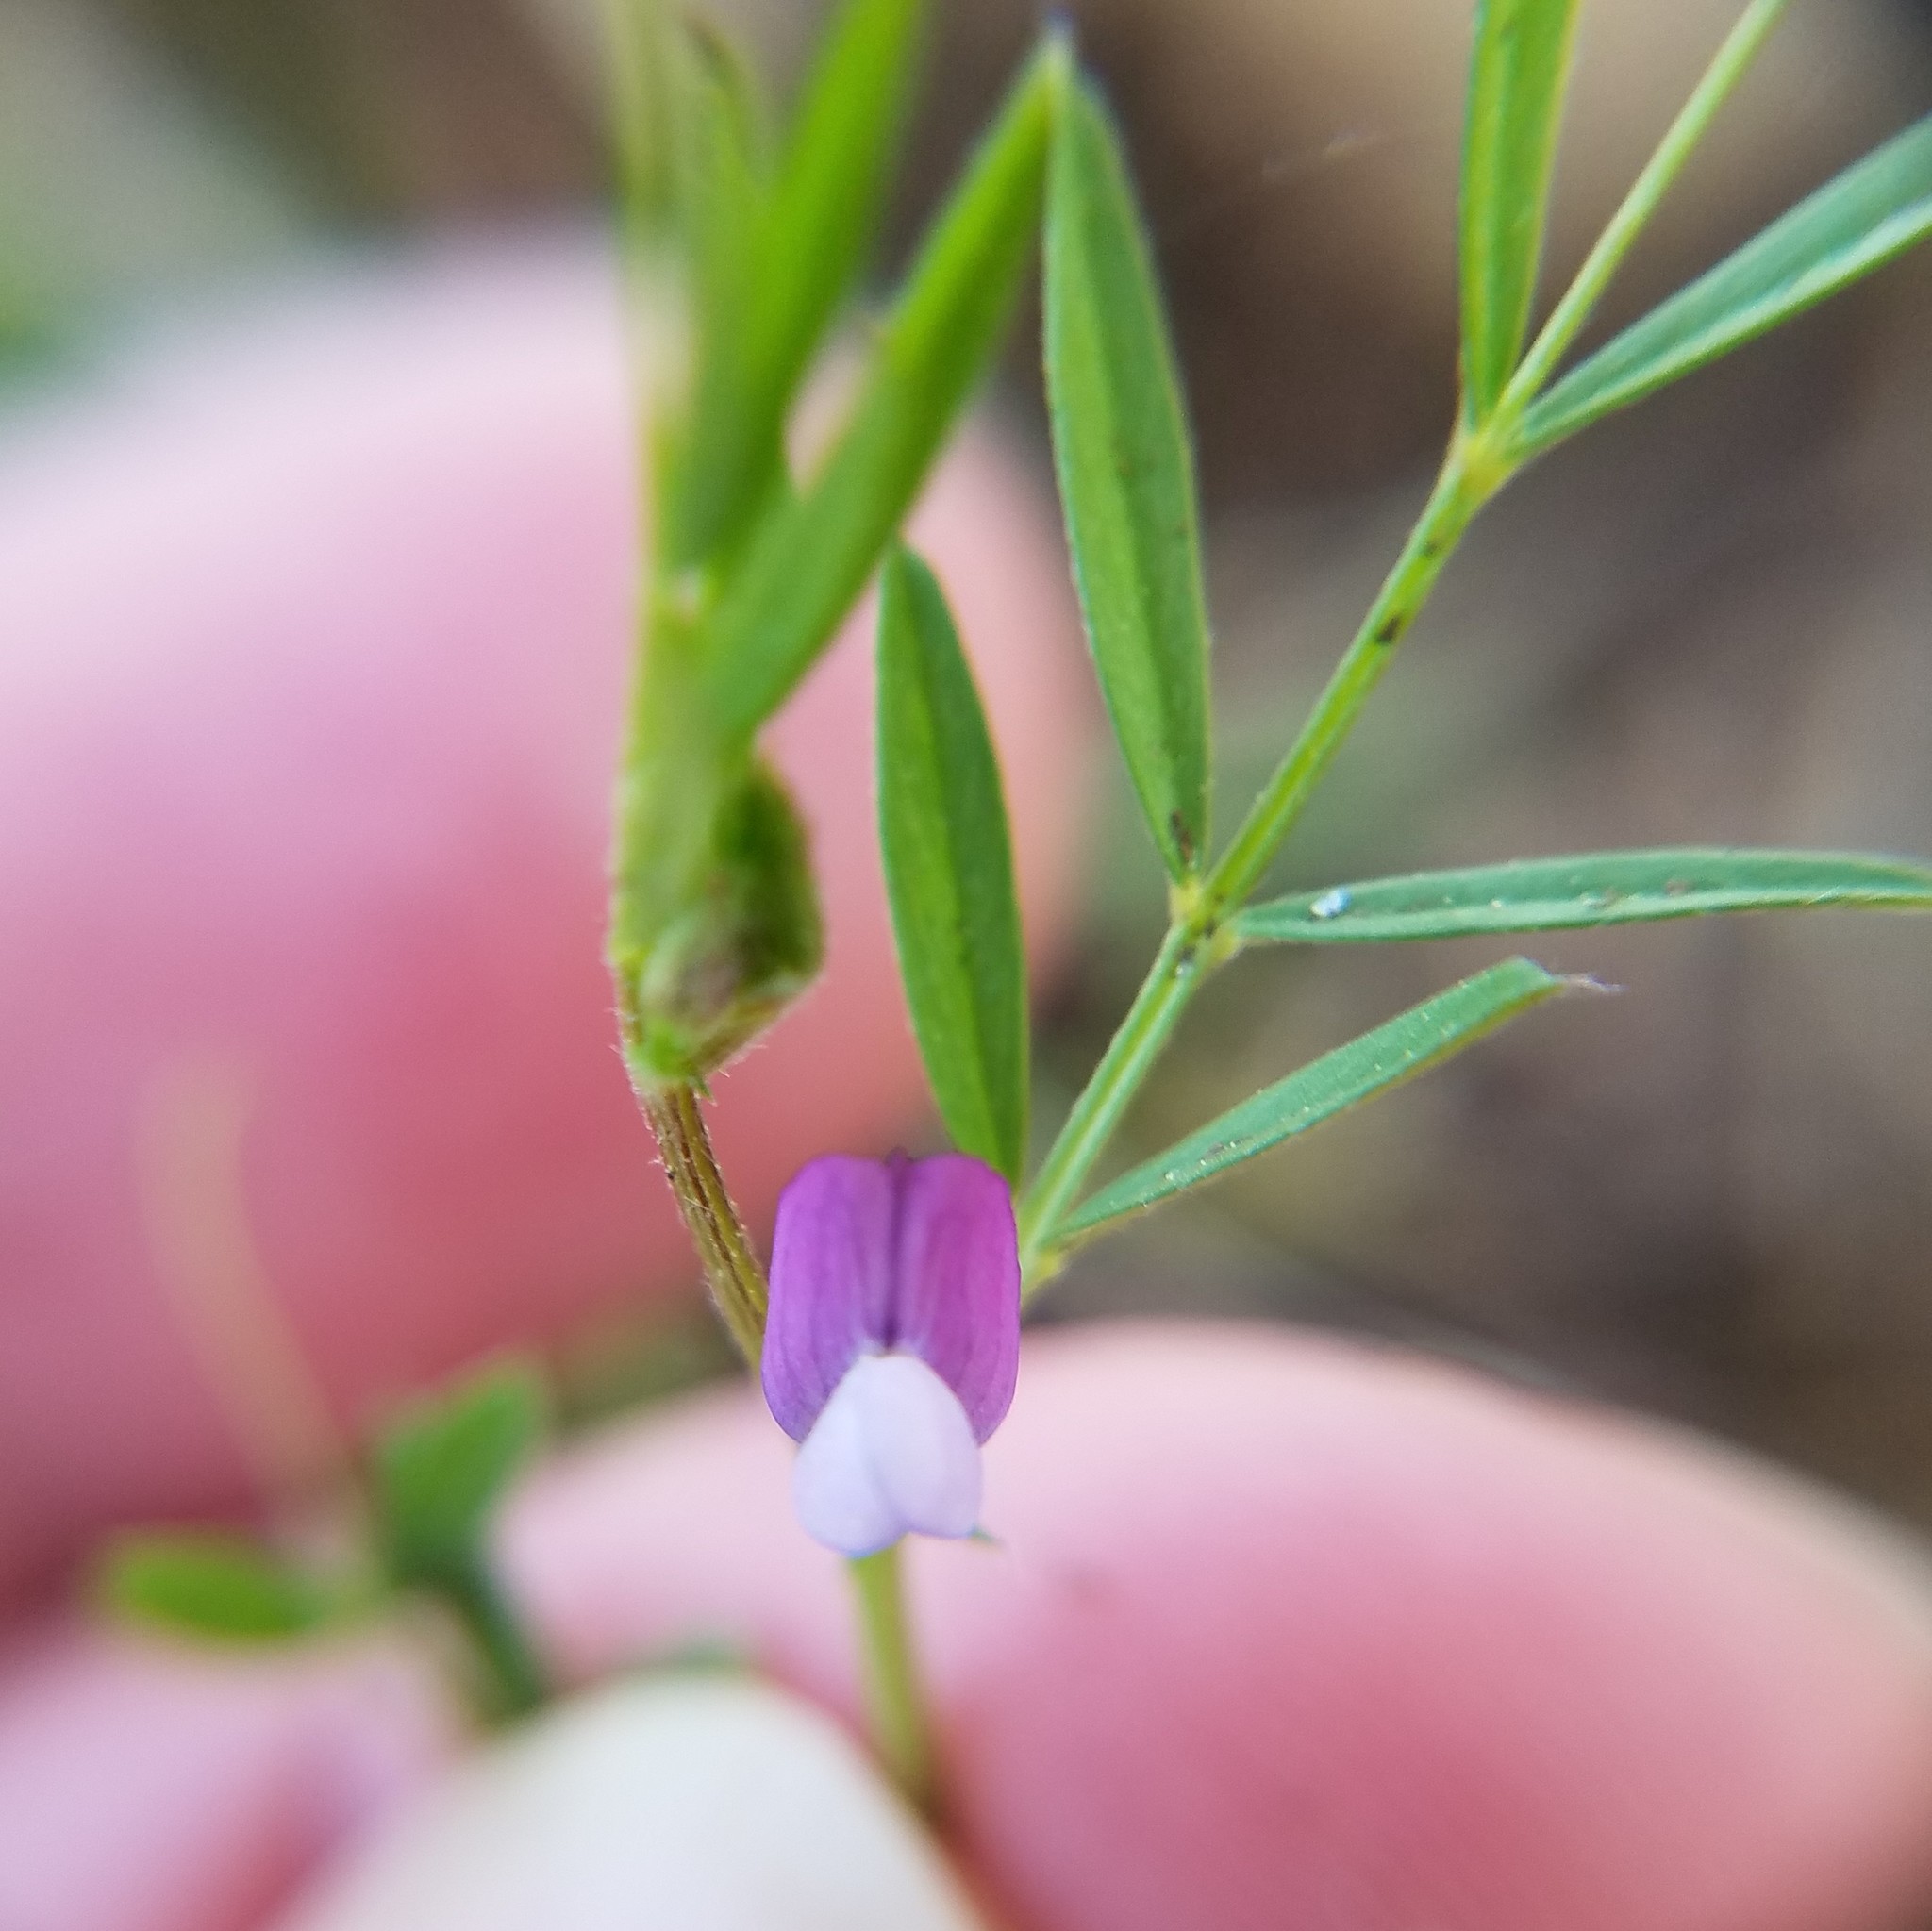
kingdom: Plantae
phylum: Tracheophyta
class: Magnoliopsida
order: Fabales
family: Fabaceae
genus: Vicia
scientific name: Vicia lathyroides
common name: Spring vetch
